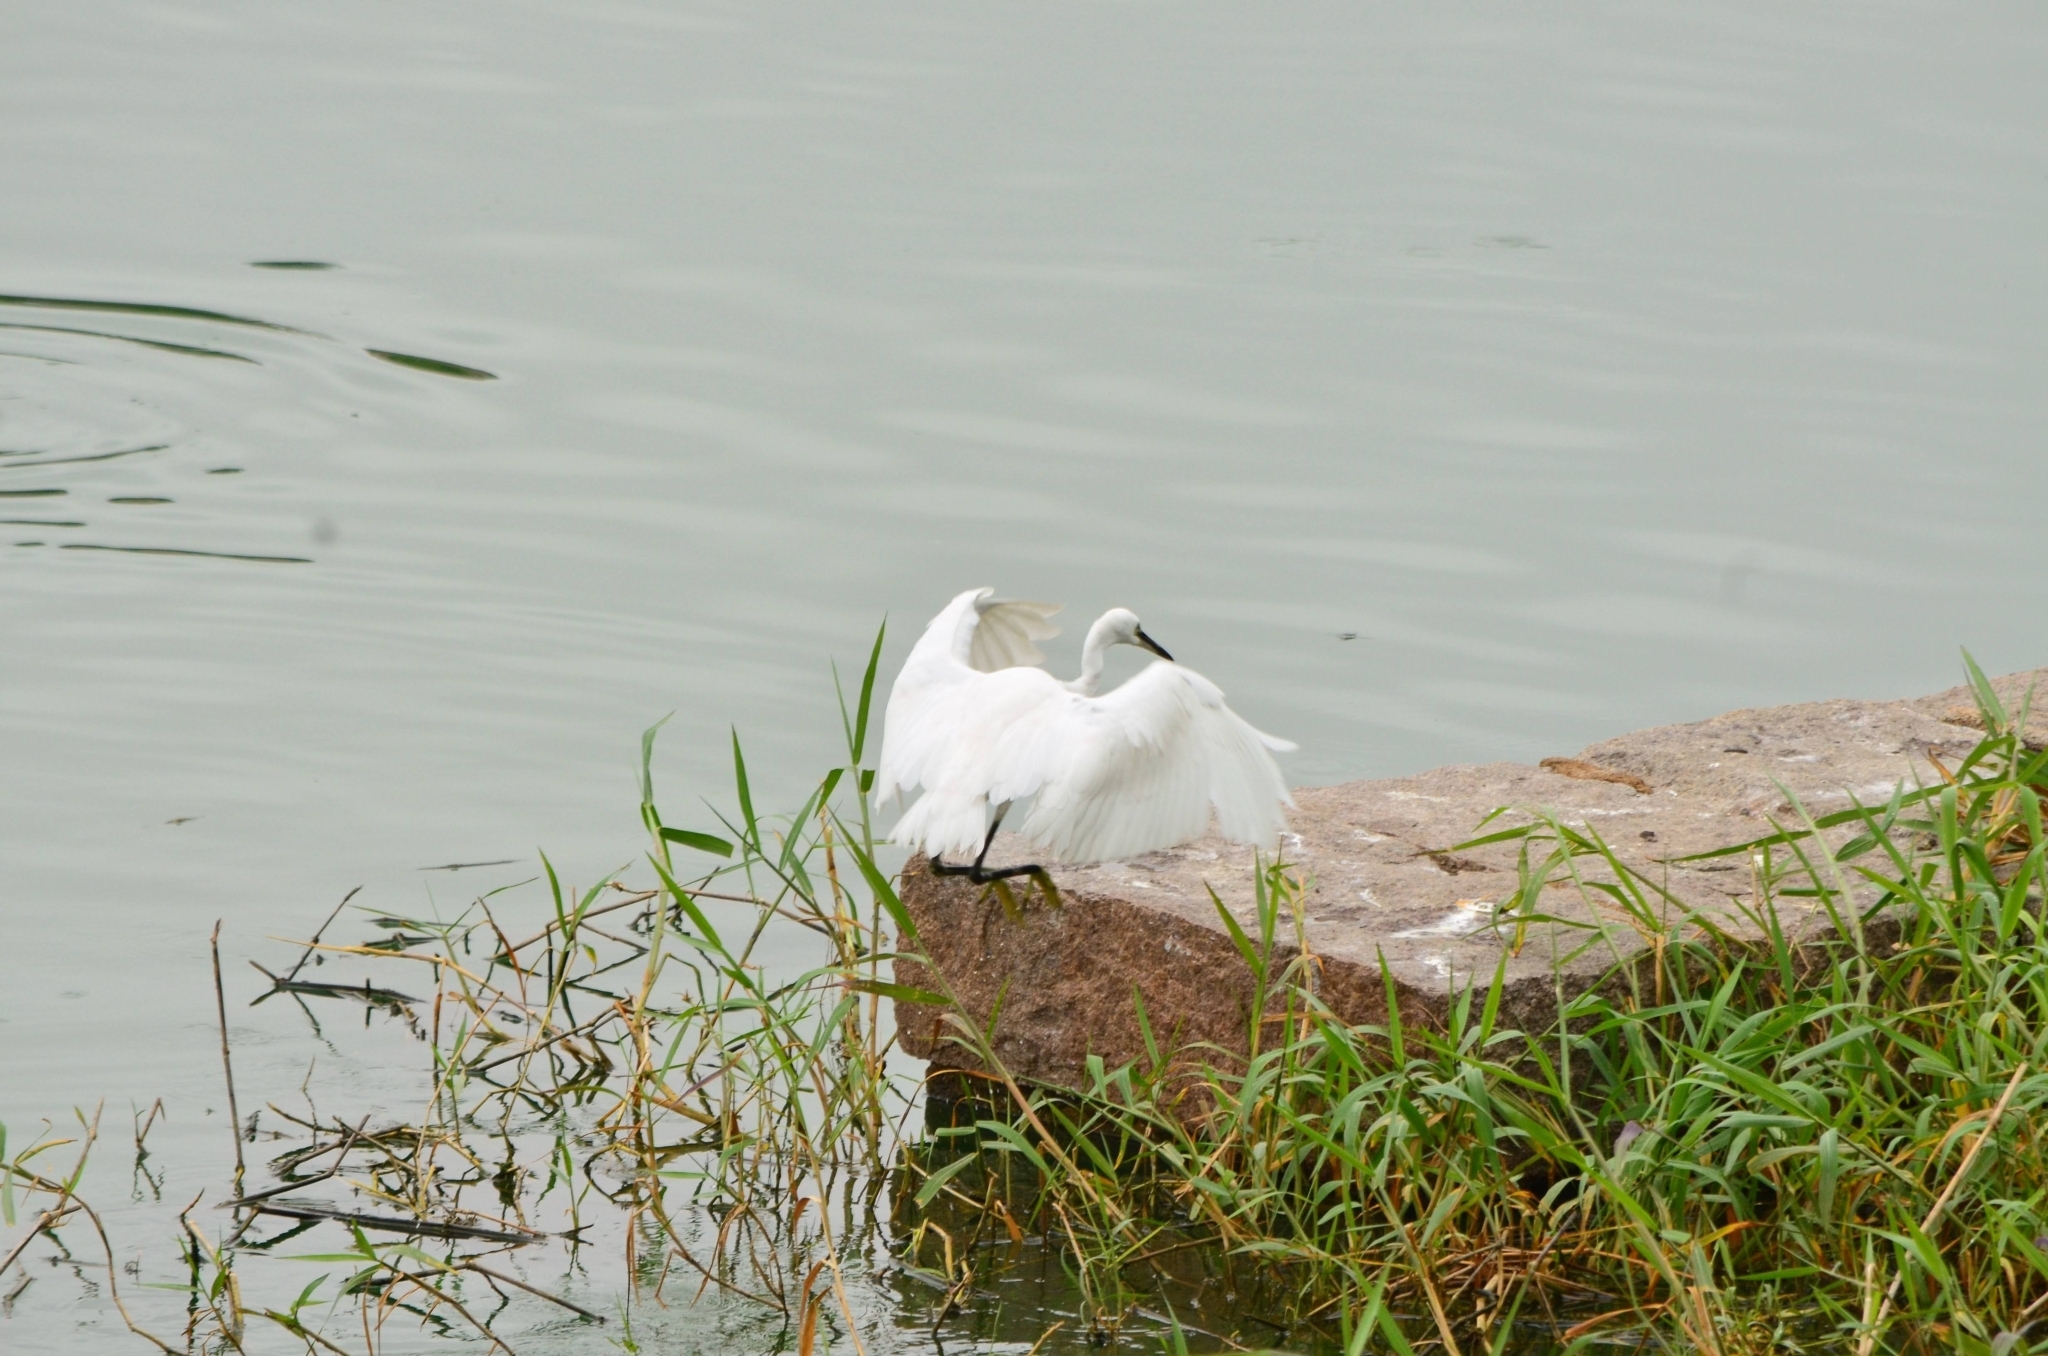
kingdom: Animalia
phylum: Chordata
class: Aves
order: Pelecaniformes
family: Ardeidae
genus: Egretta
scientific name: Egretta garzetta
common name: Little egret
